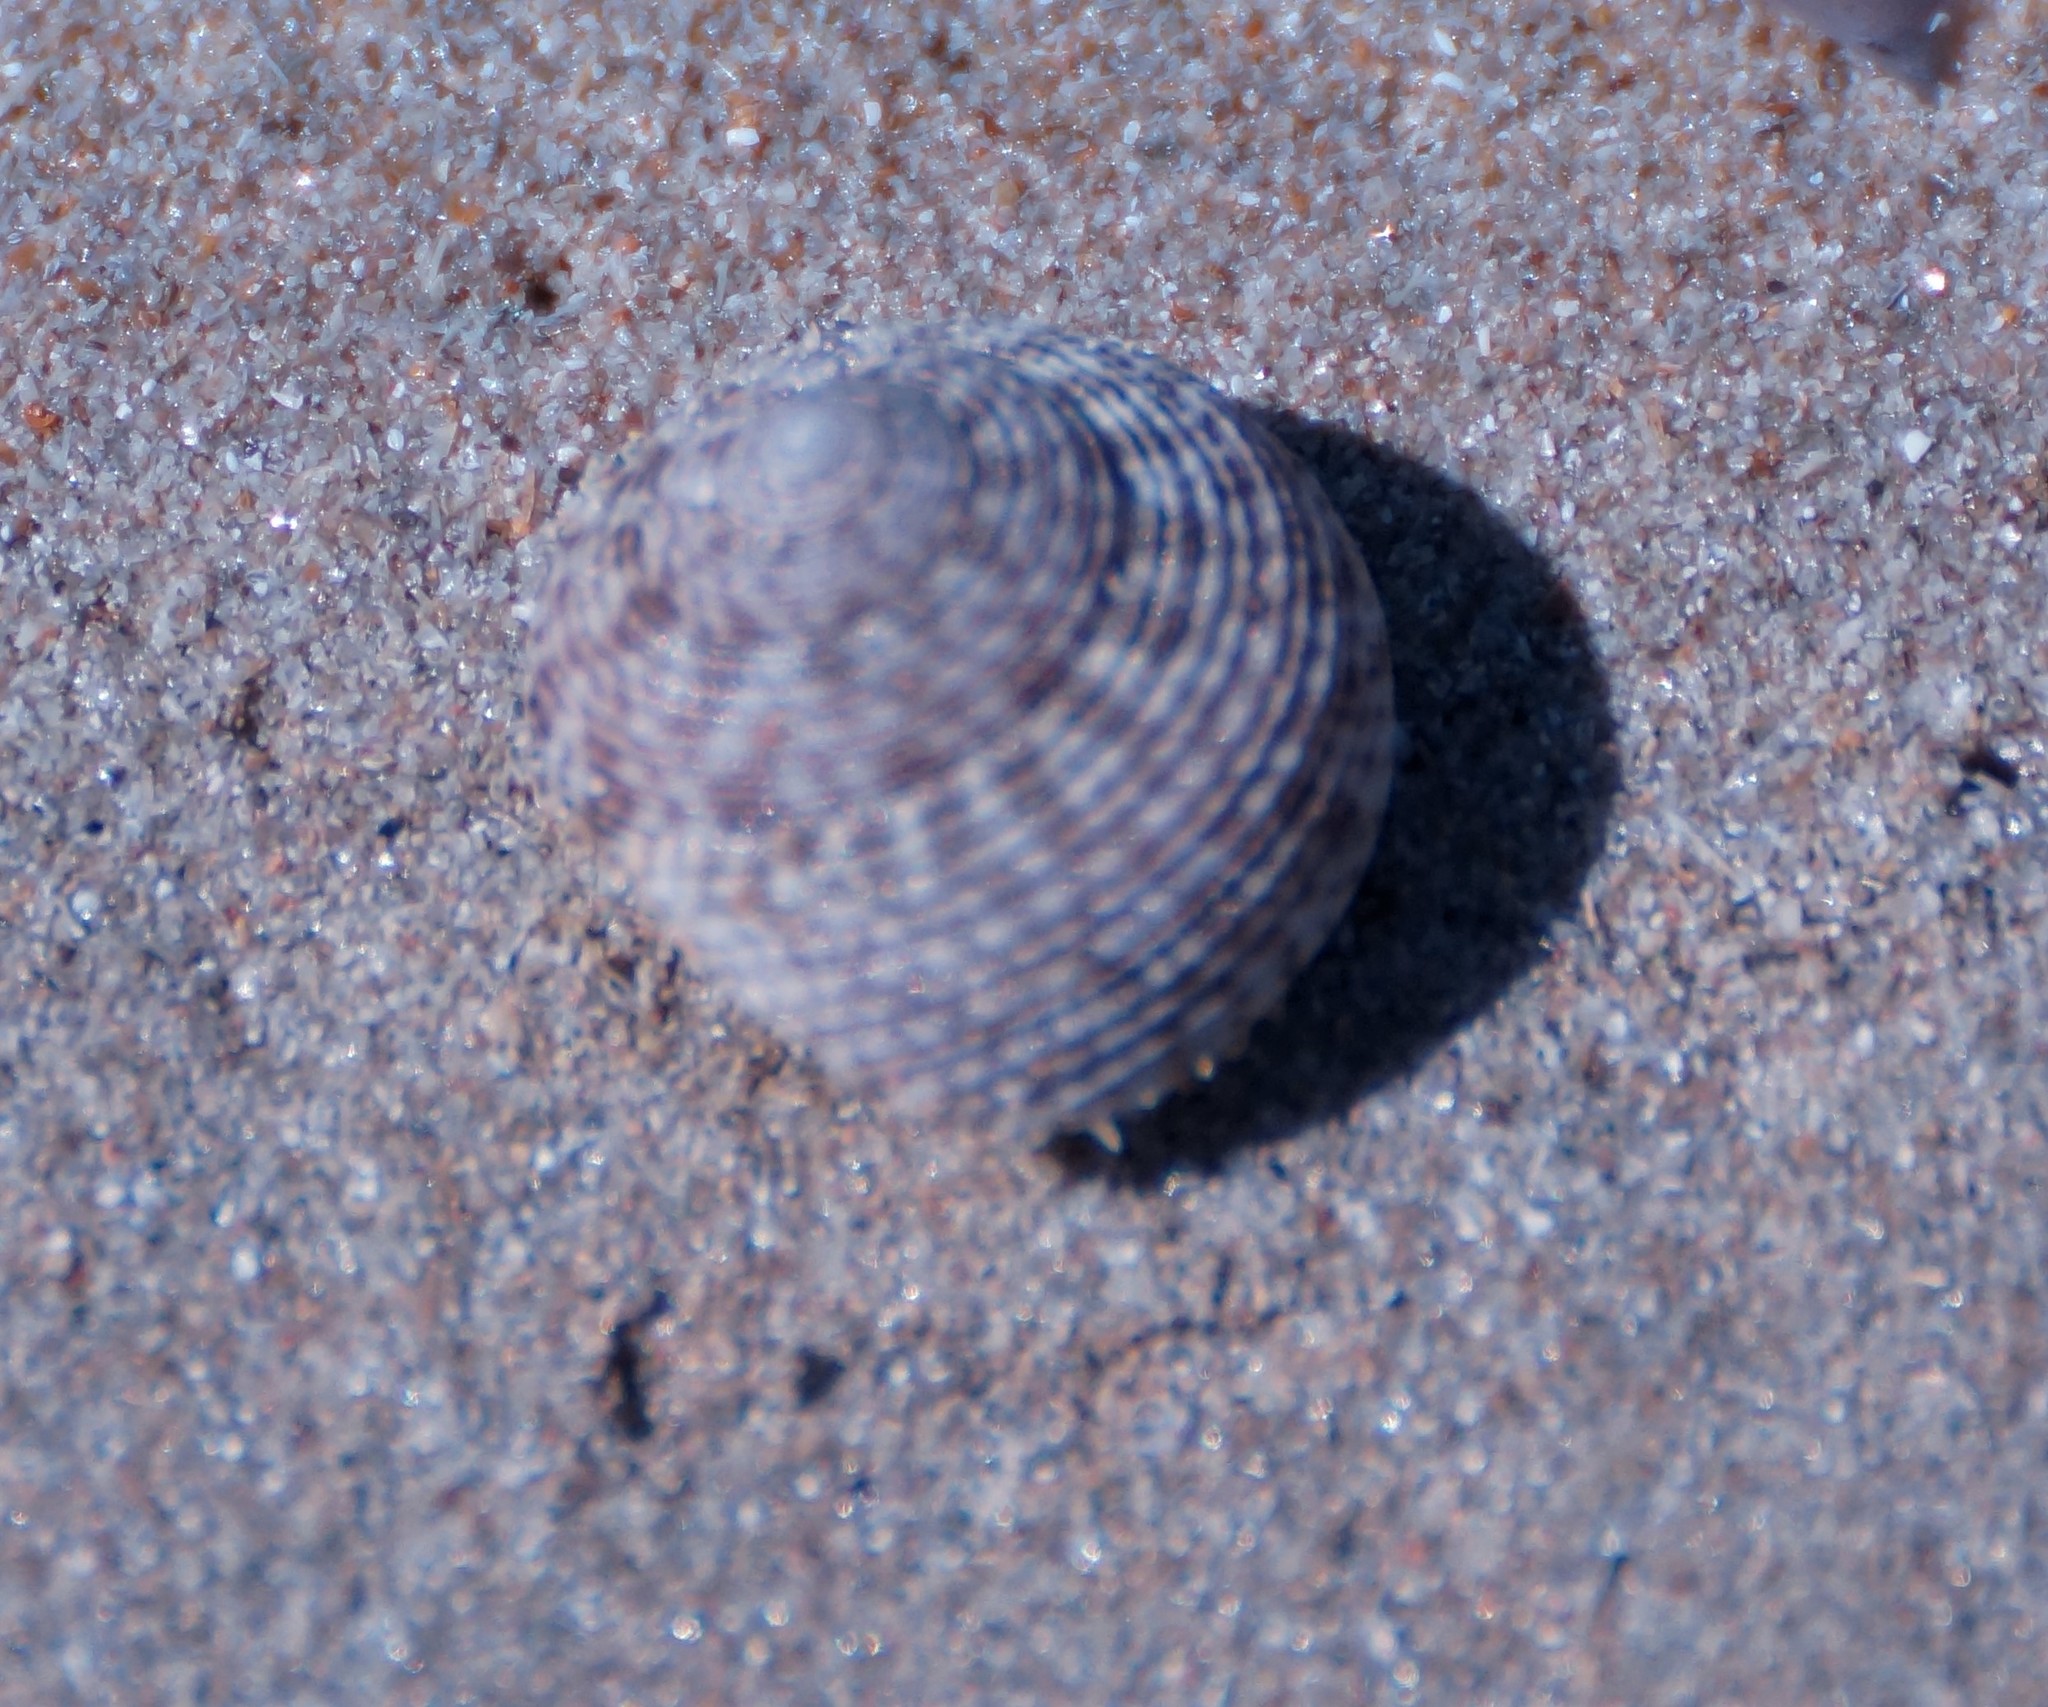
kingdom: Animalia
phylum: Mollusca
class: Gastropoda
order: Trochida
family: Trochidae
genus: Monilea
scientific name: Monilea callifera
